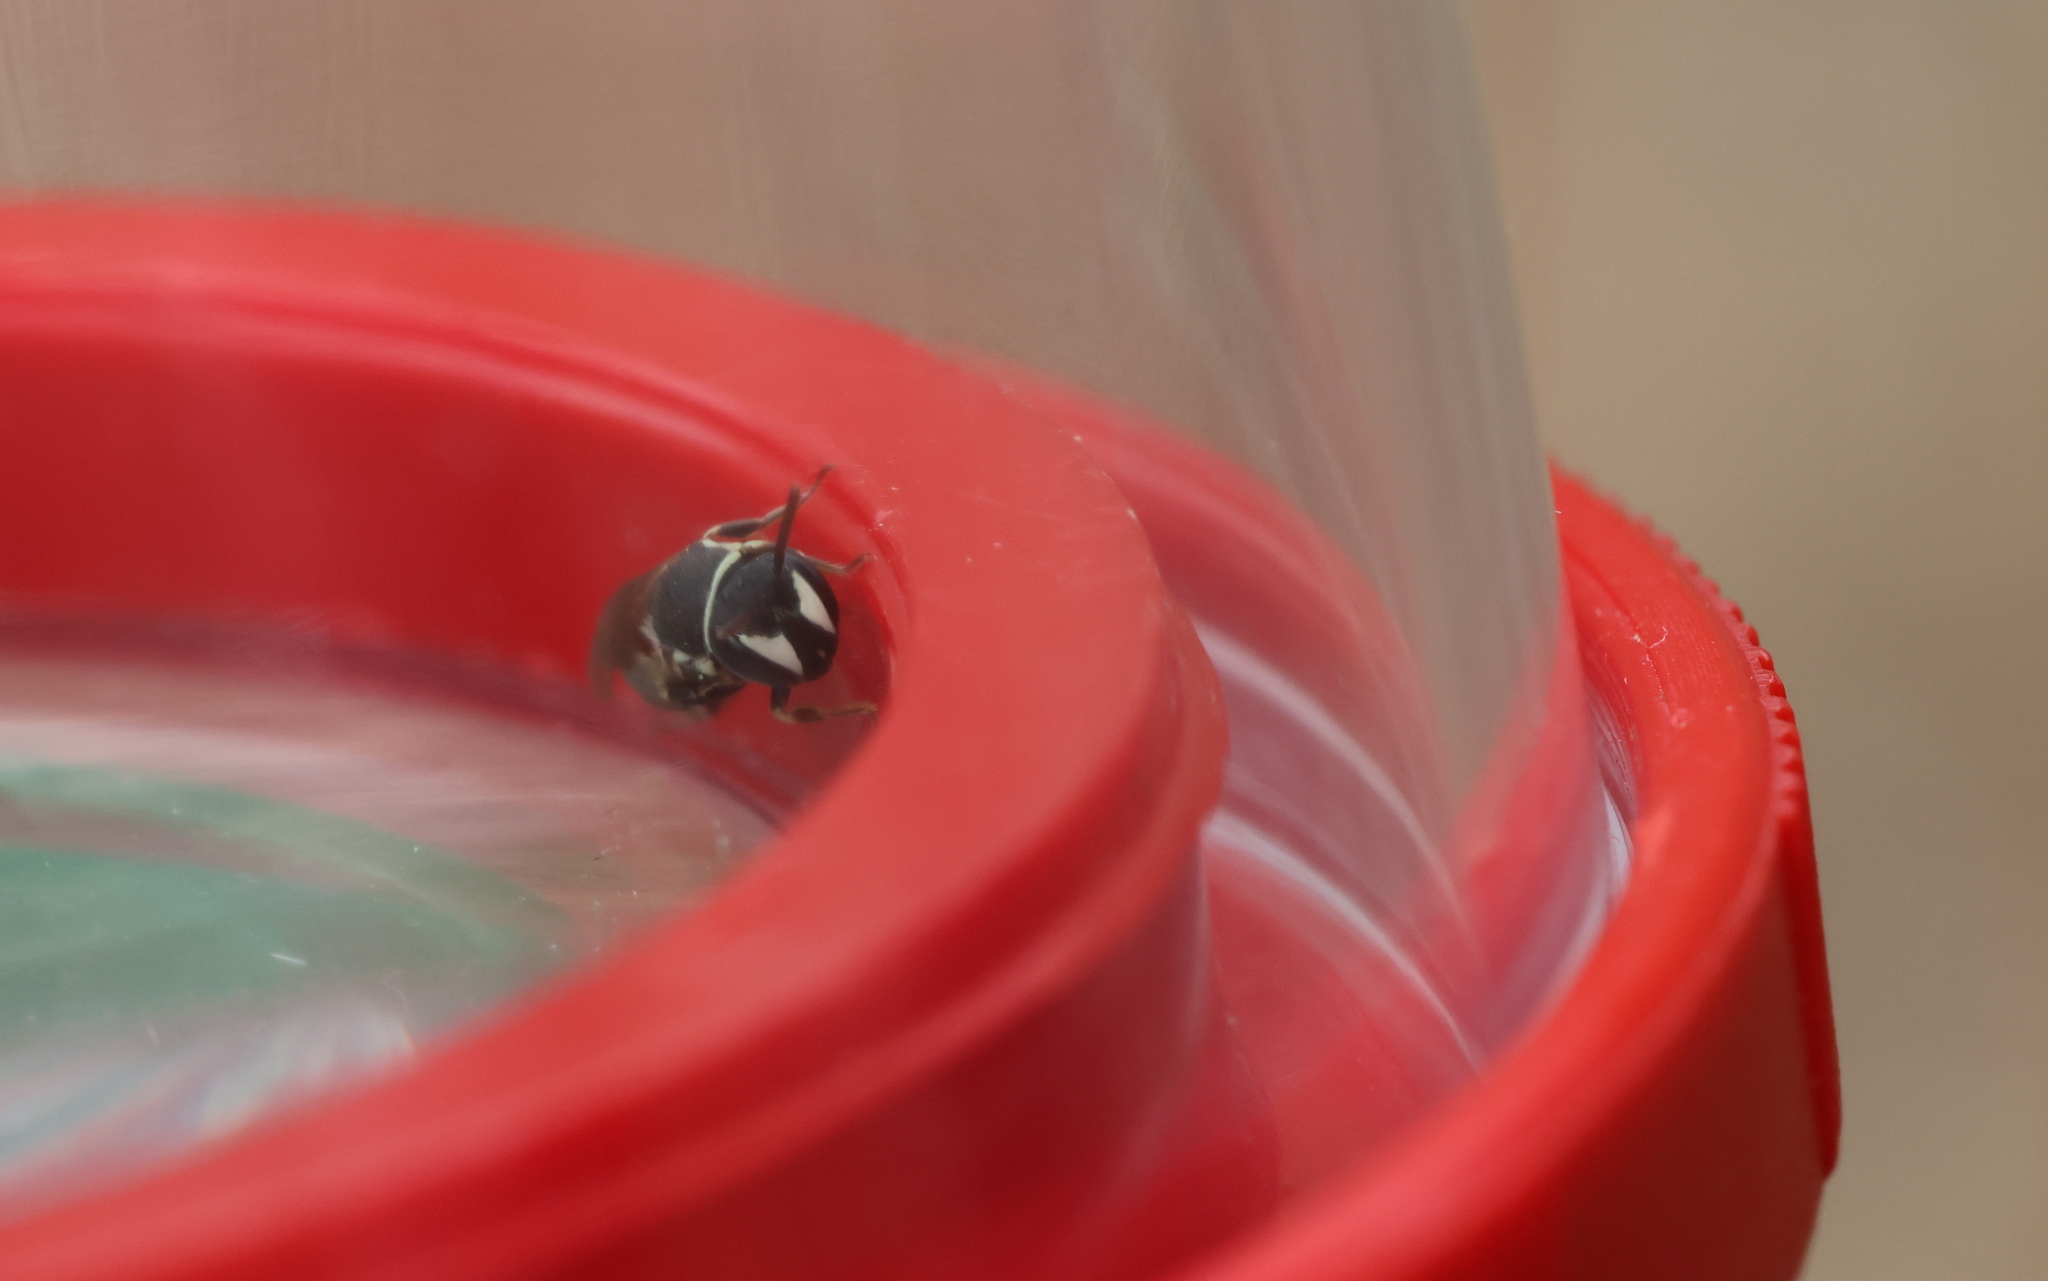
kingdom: Animalia
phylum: Arthropoda
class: Insecta
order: Hymenoptera
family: Colletidae
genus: Hylaeus
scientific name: Hylaeus variegatus
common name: Masked bee
